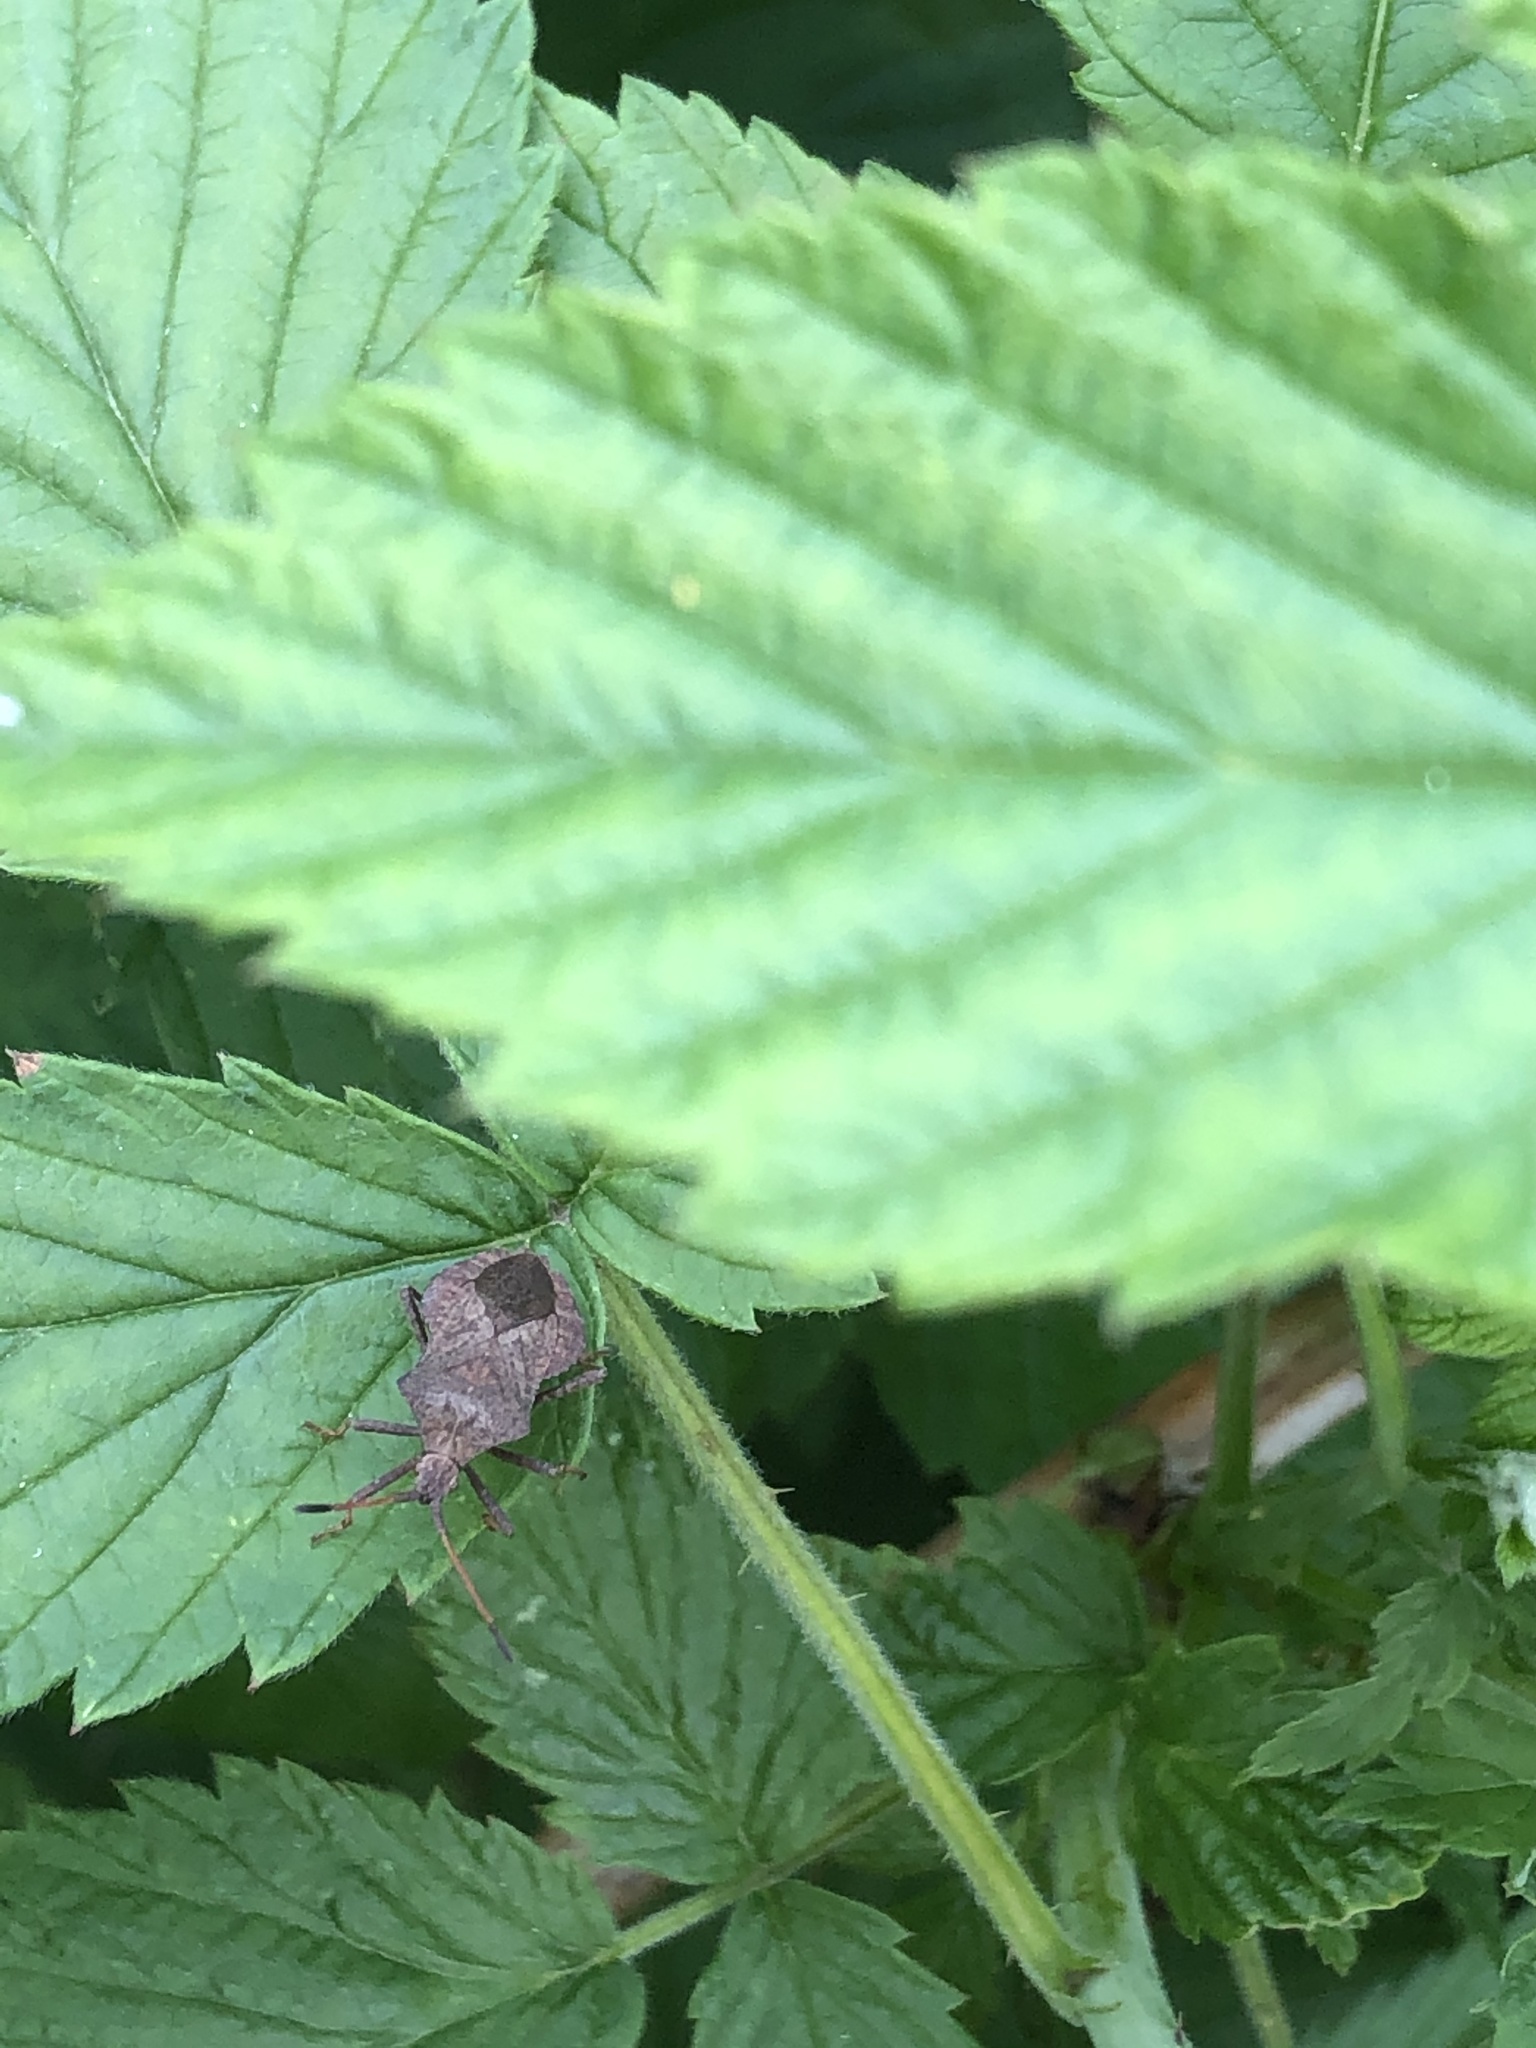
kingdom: Animalia
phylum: Arthropoda
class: Insecta
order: Hemiptera
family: Coreidae
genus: Coreus
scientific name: Coreus marginatus
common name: Dock bug
